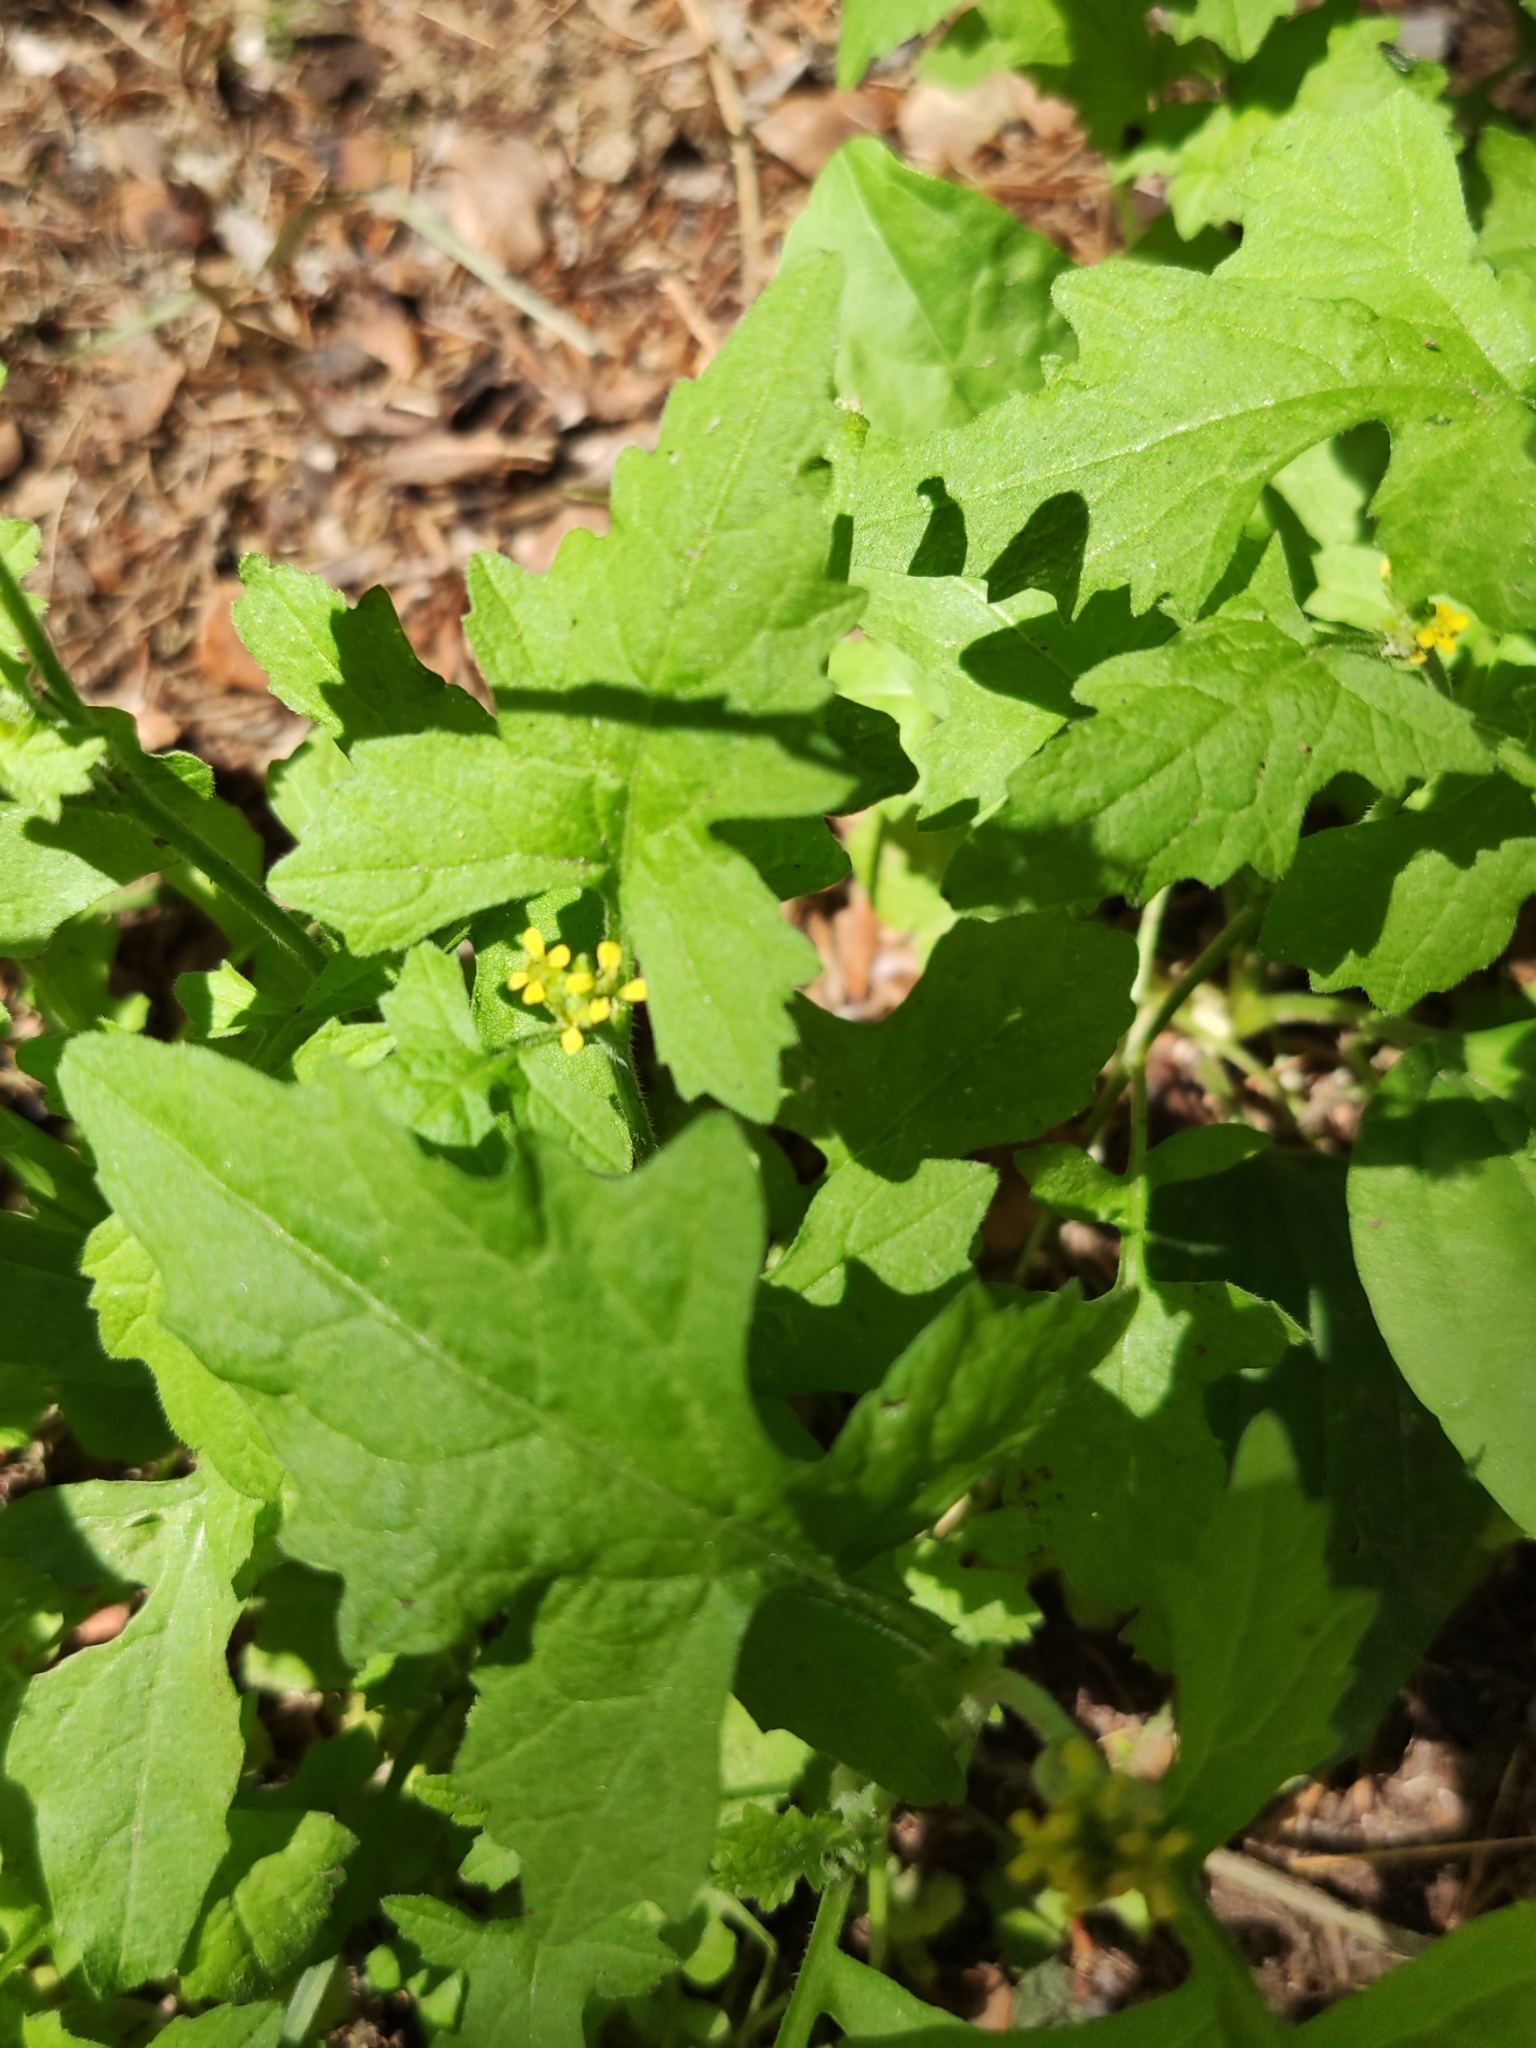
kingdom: Plantae
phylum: Tracheophyta
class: Magnoliopsida
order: Brassicales
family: Brassicaceae
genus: Sisymbrium
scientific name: Sisymbrium officinale
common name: Hedge mustard
